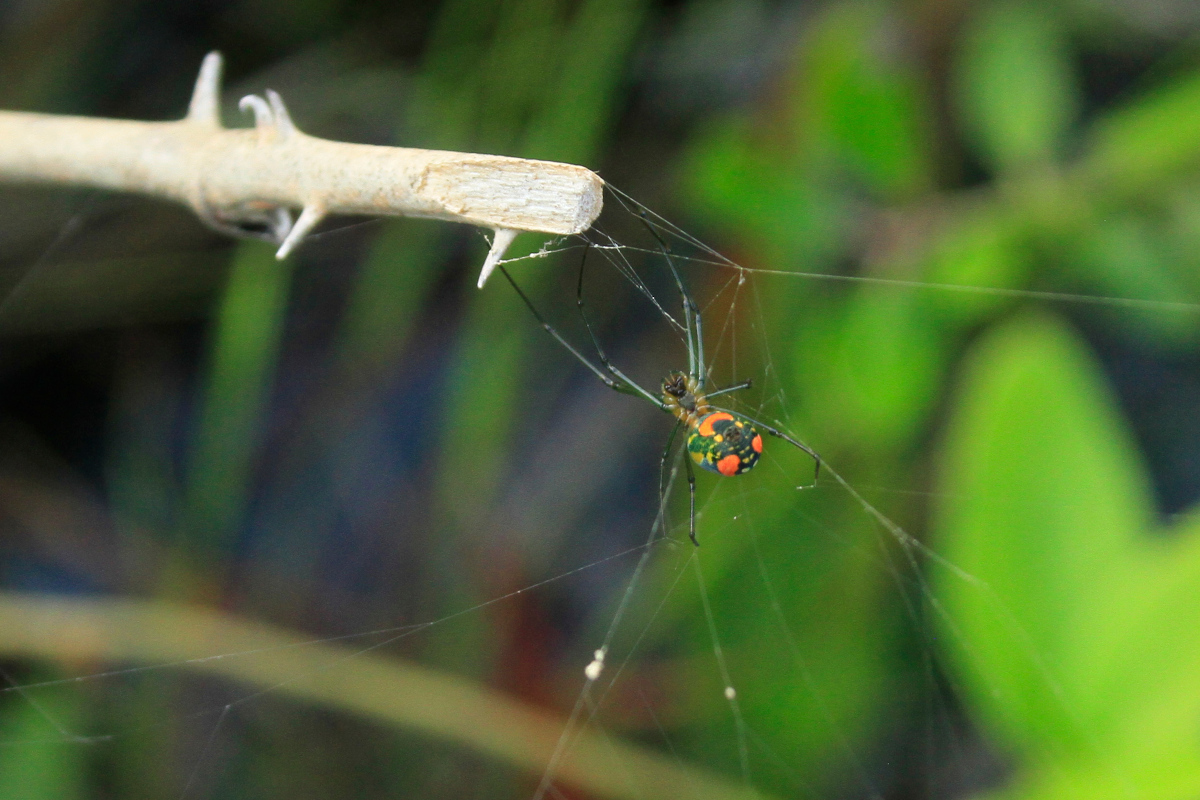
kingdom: Animalia
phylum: Arthropoda
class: Arachnida
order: Araneae
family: Tetragnathidae
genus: Leucauge
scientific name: Leucauge argyrobapta
